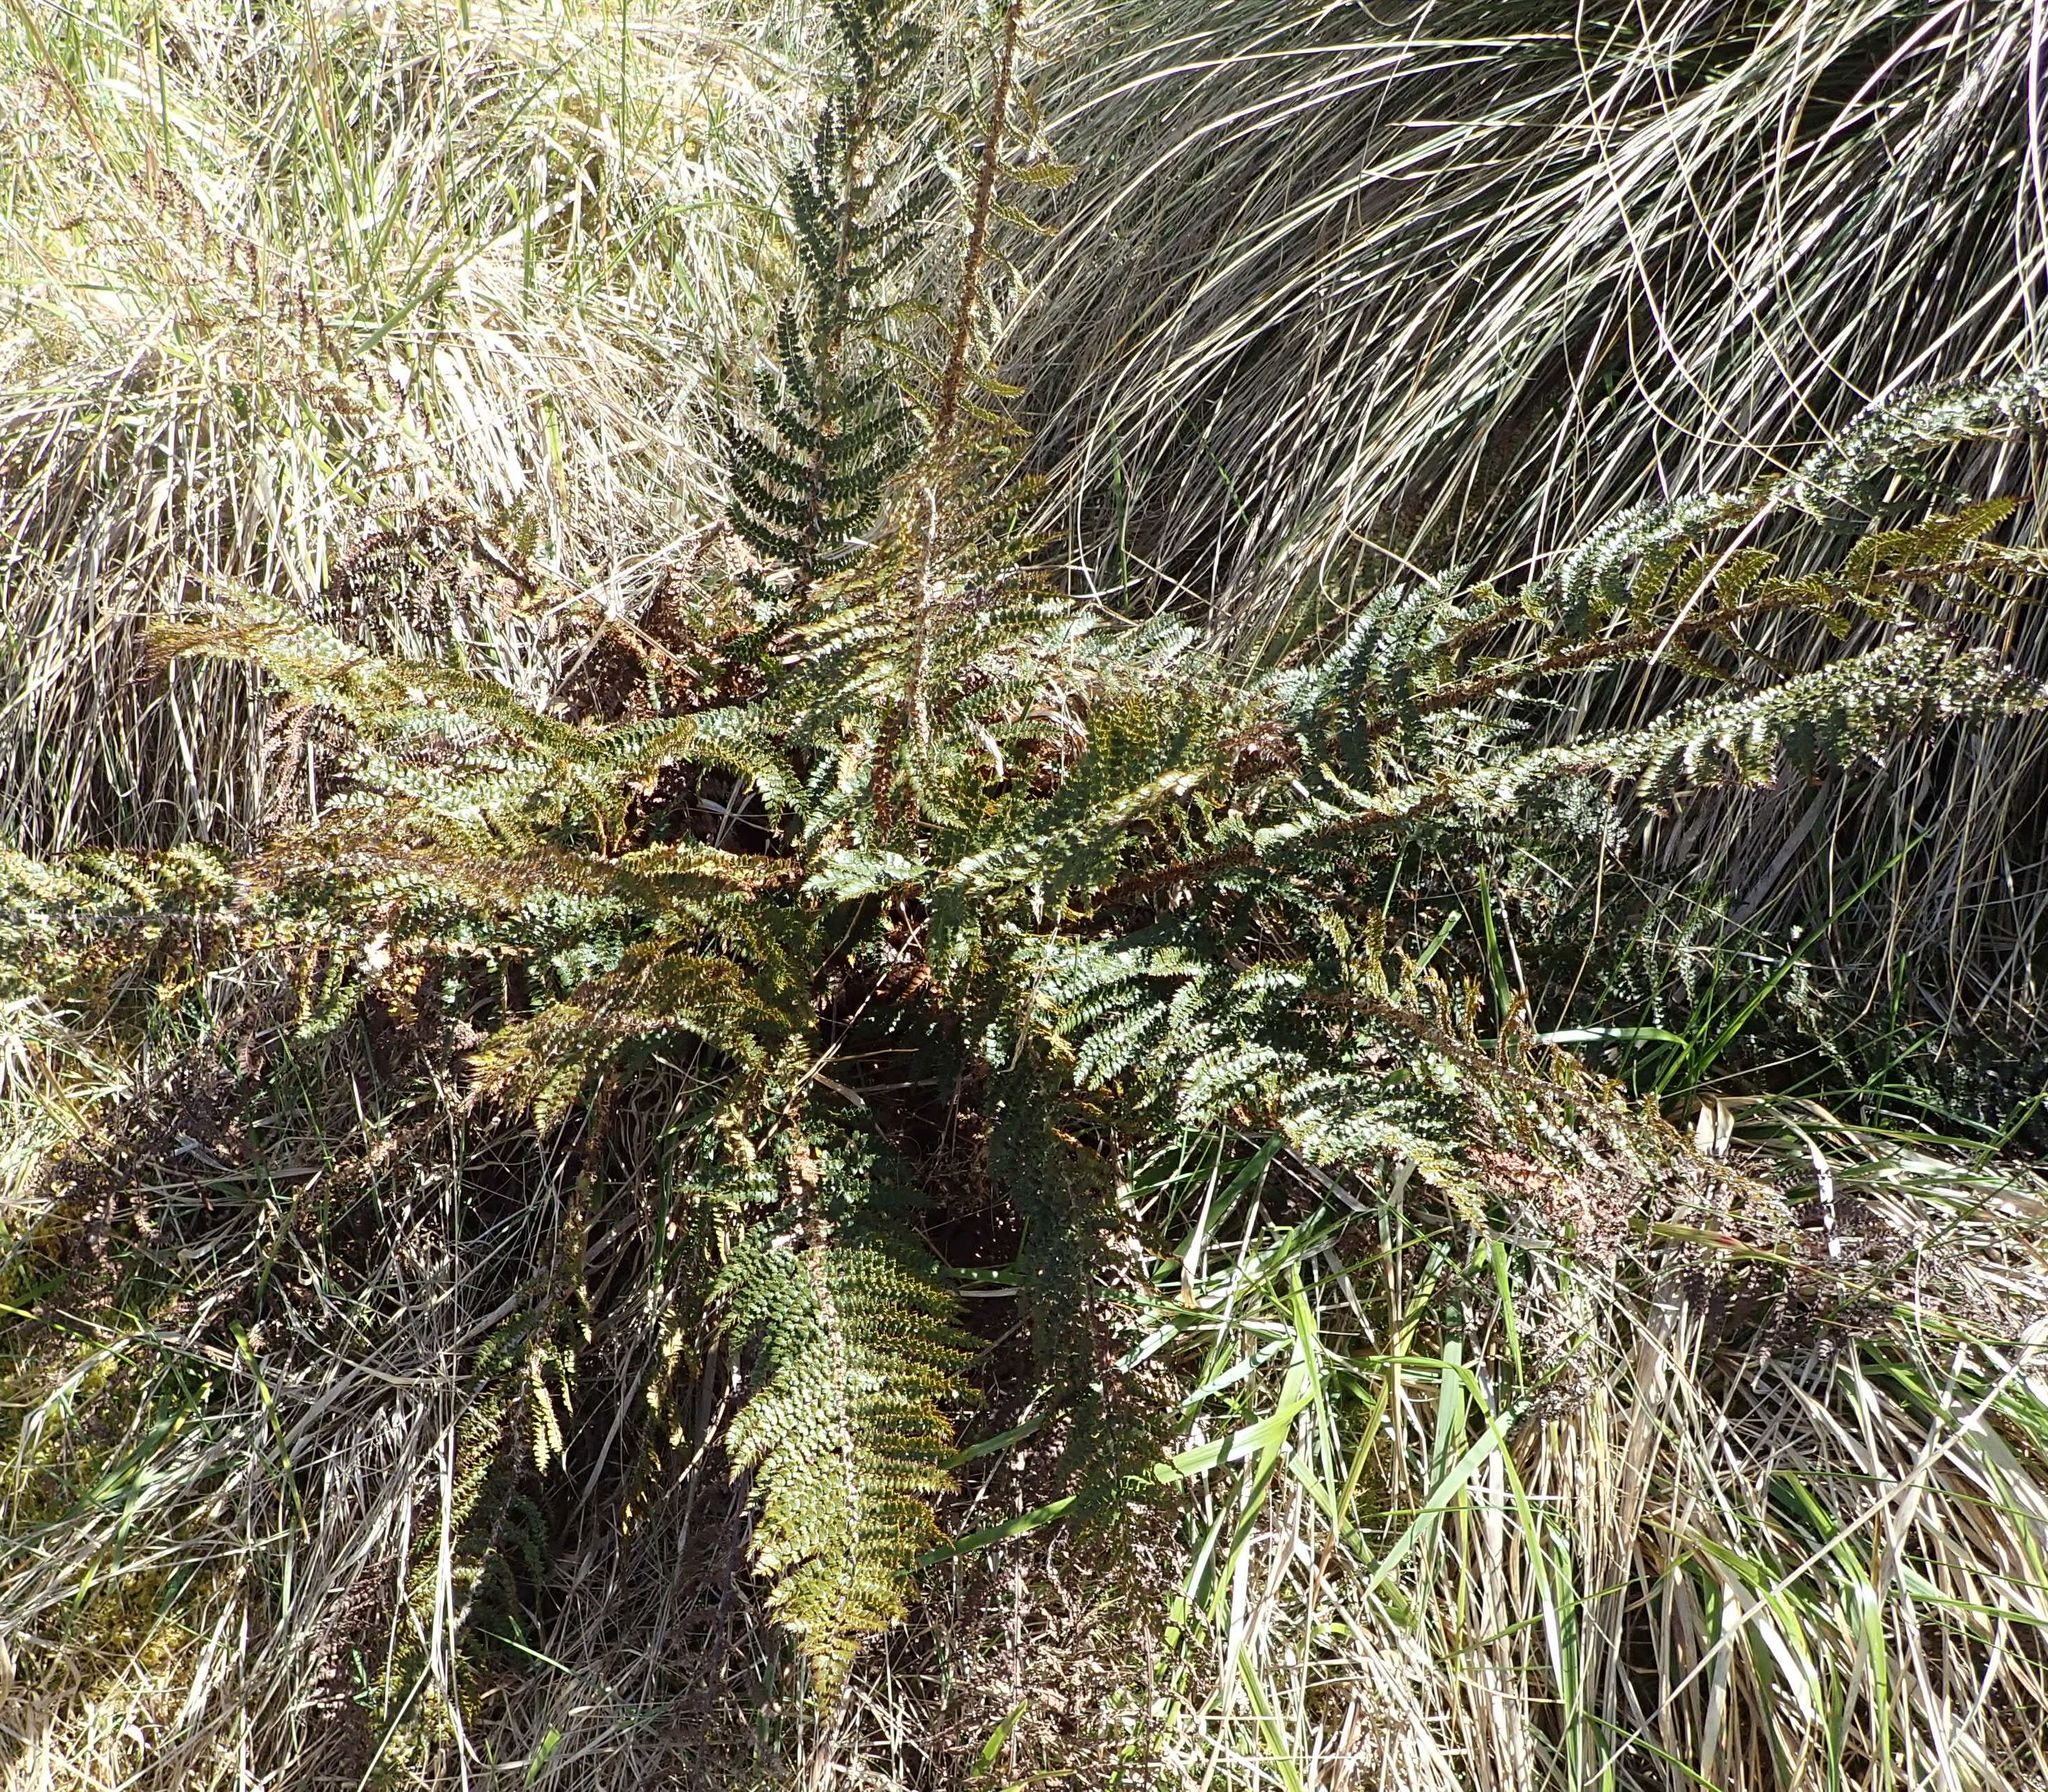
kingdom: Plantae
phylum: Tracheophyta
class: Polypodiopsida
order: Polypodiales
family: Dryopteridaceae
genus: Polystichum
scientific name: Polystichum vestitum
